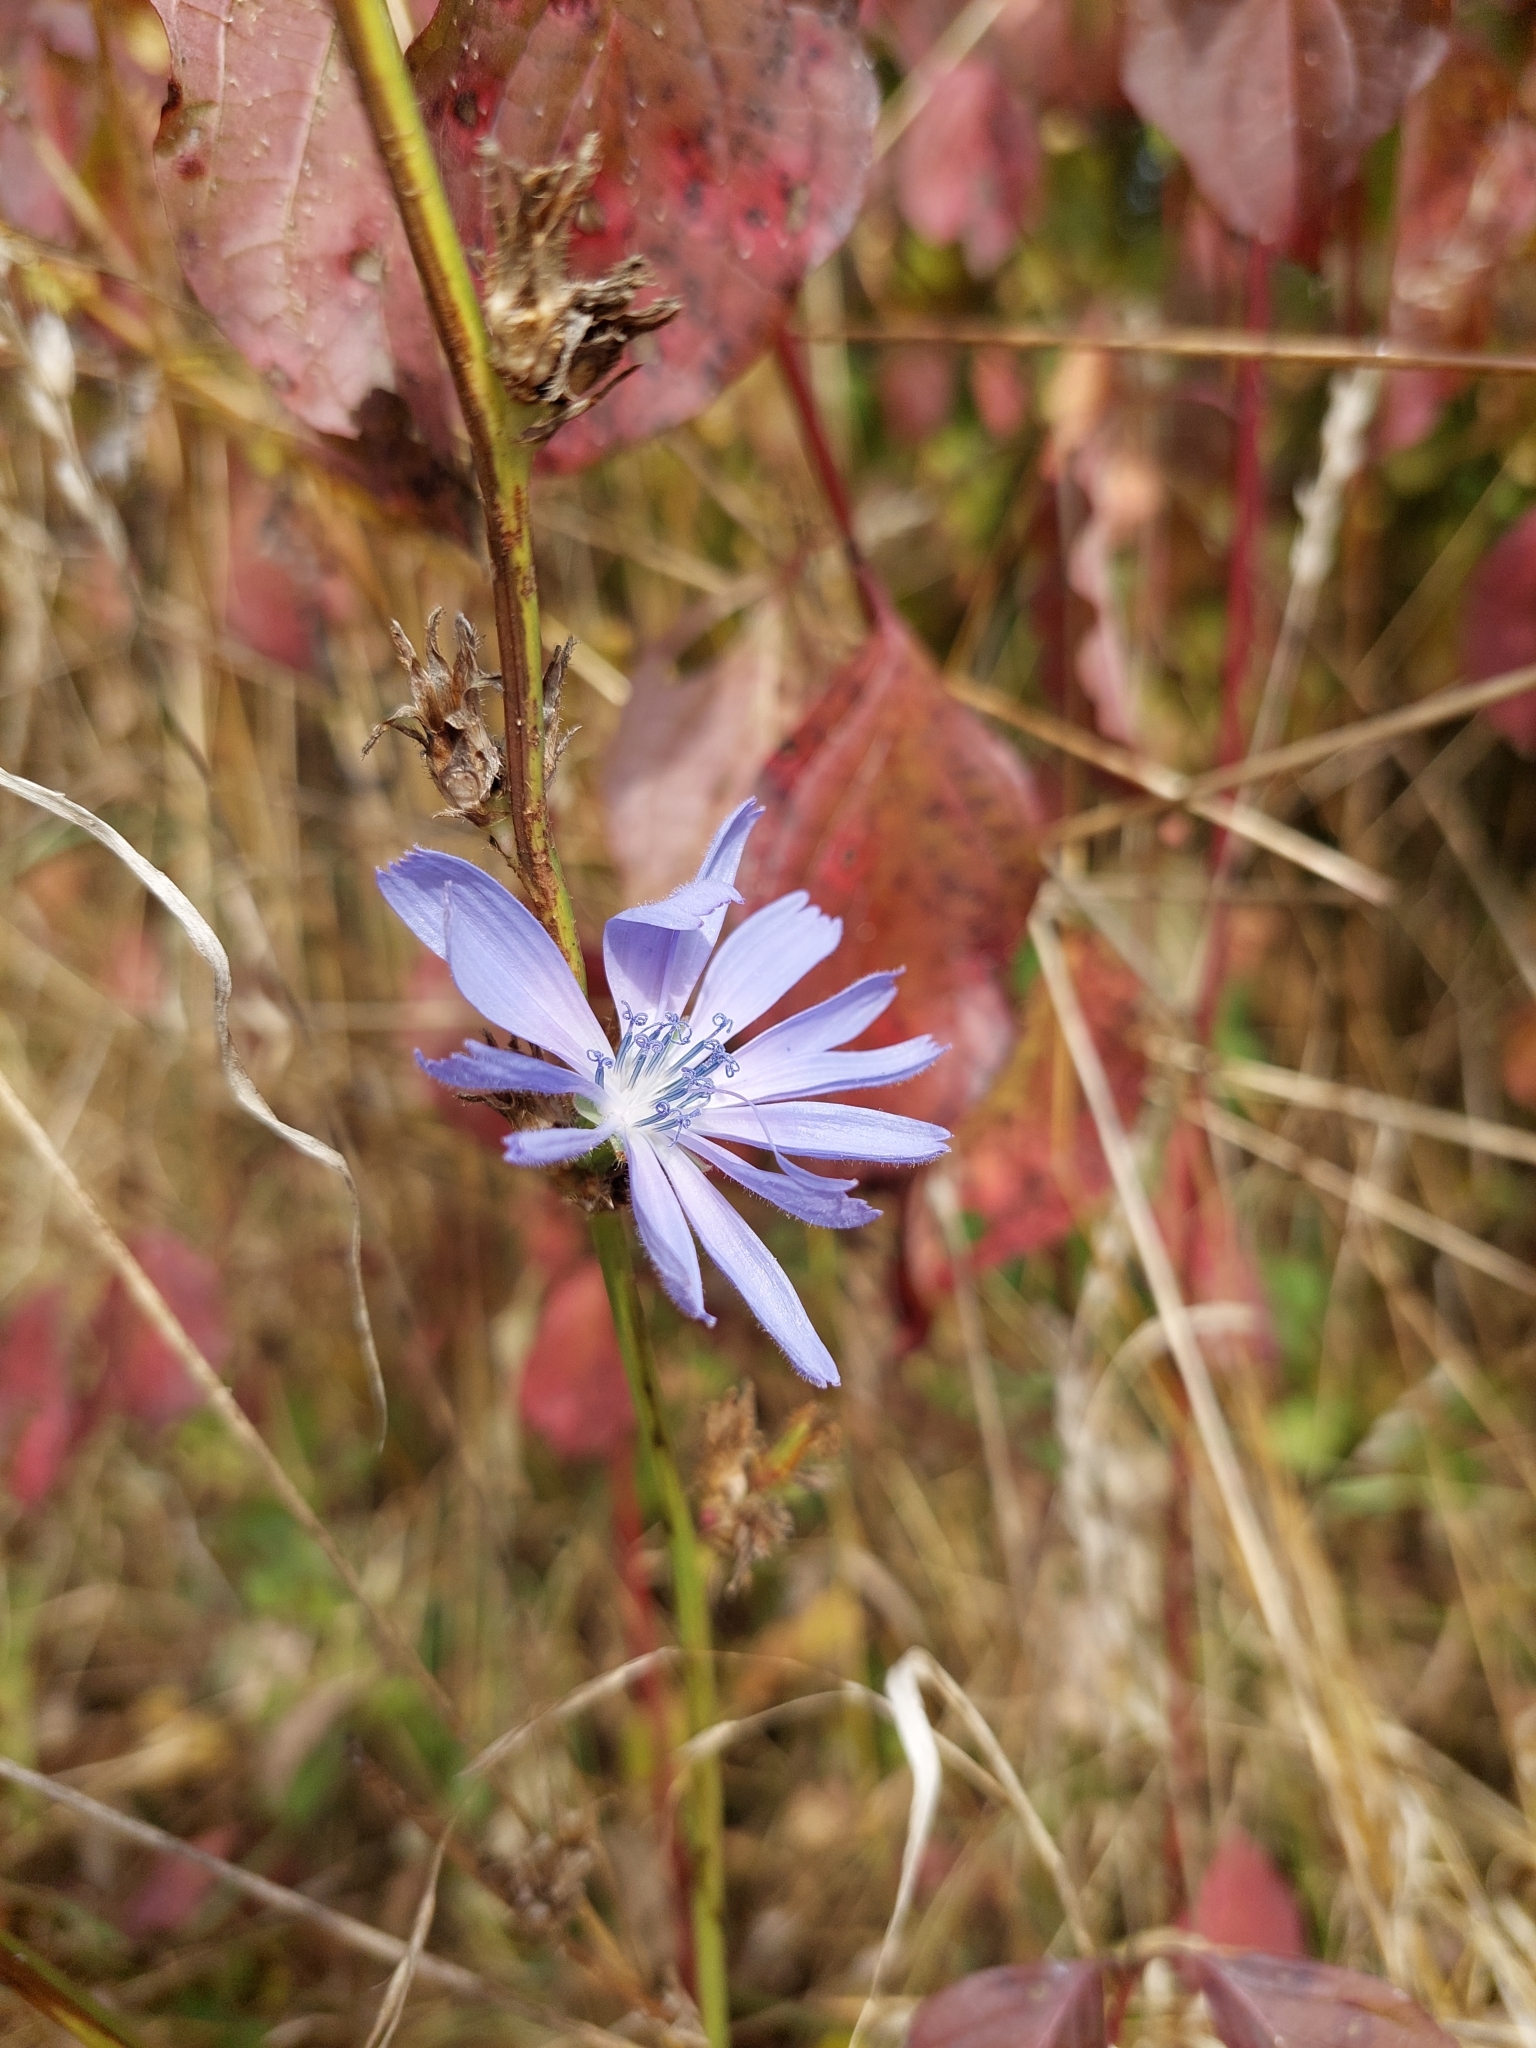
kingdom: Plantae
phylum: Tracheophyta
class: Magnoliopsida
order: Asterales
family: Asteraceae
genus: Cichorium
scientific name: Cichorium intybus
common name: Chicory
